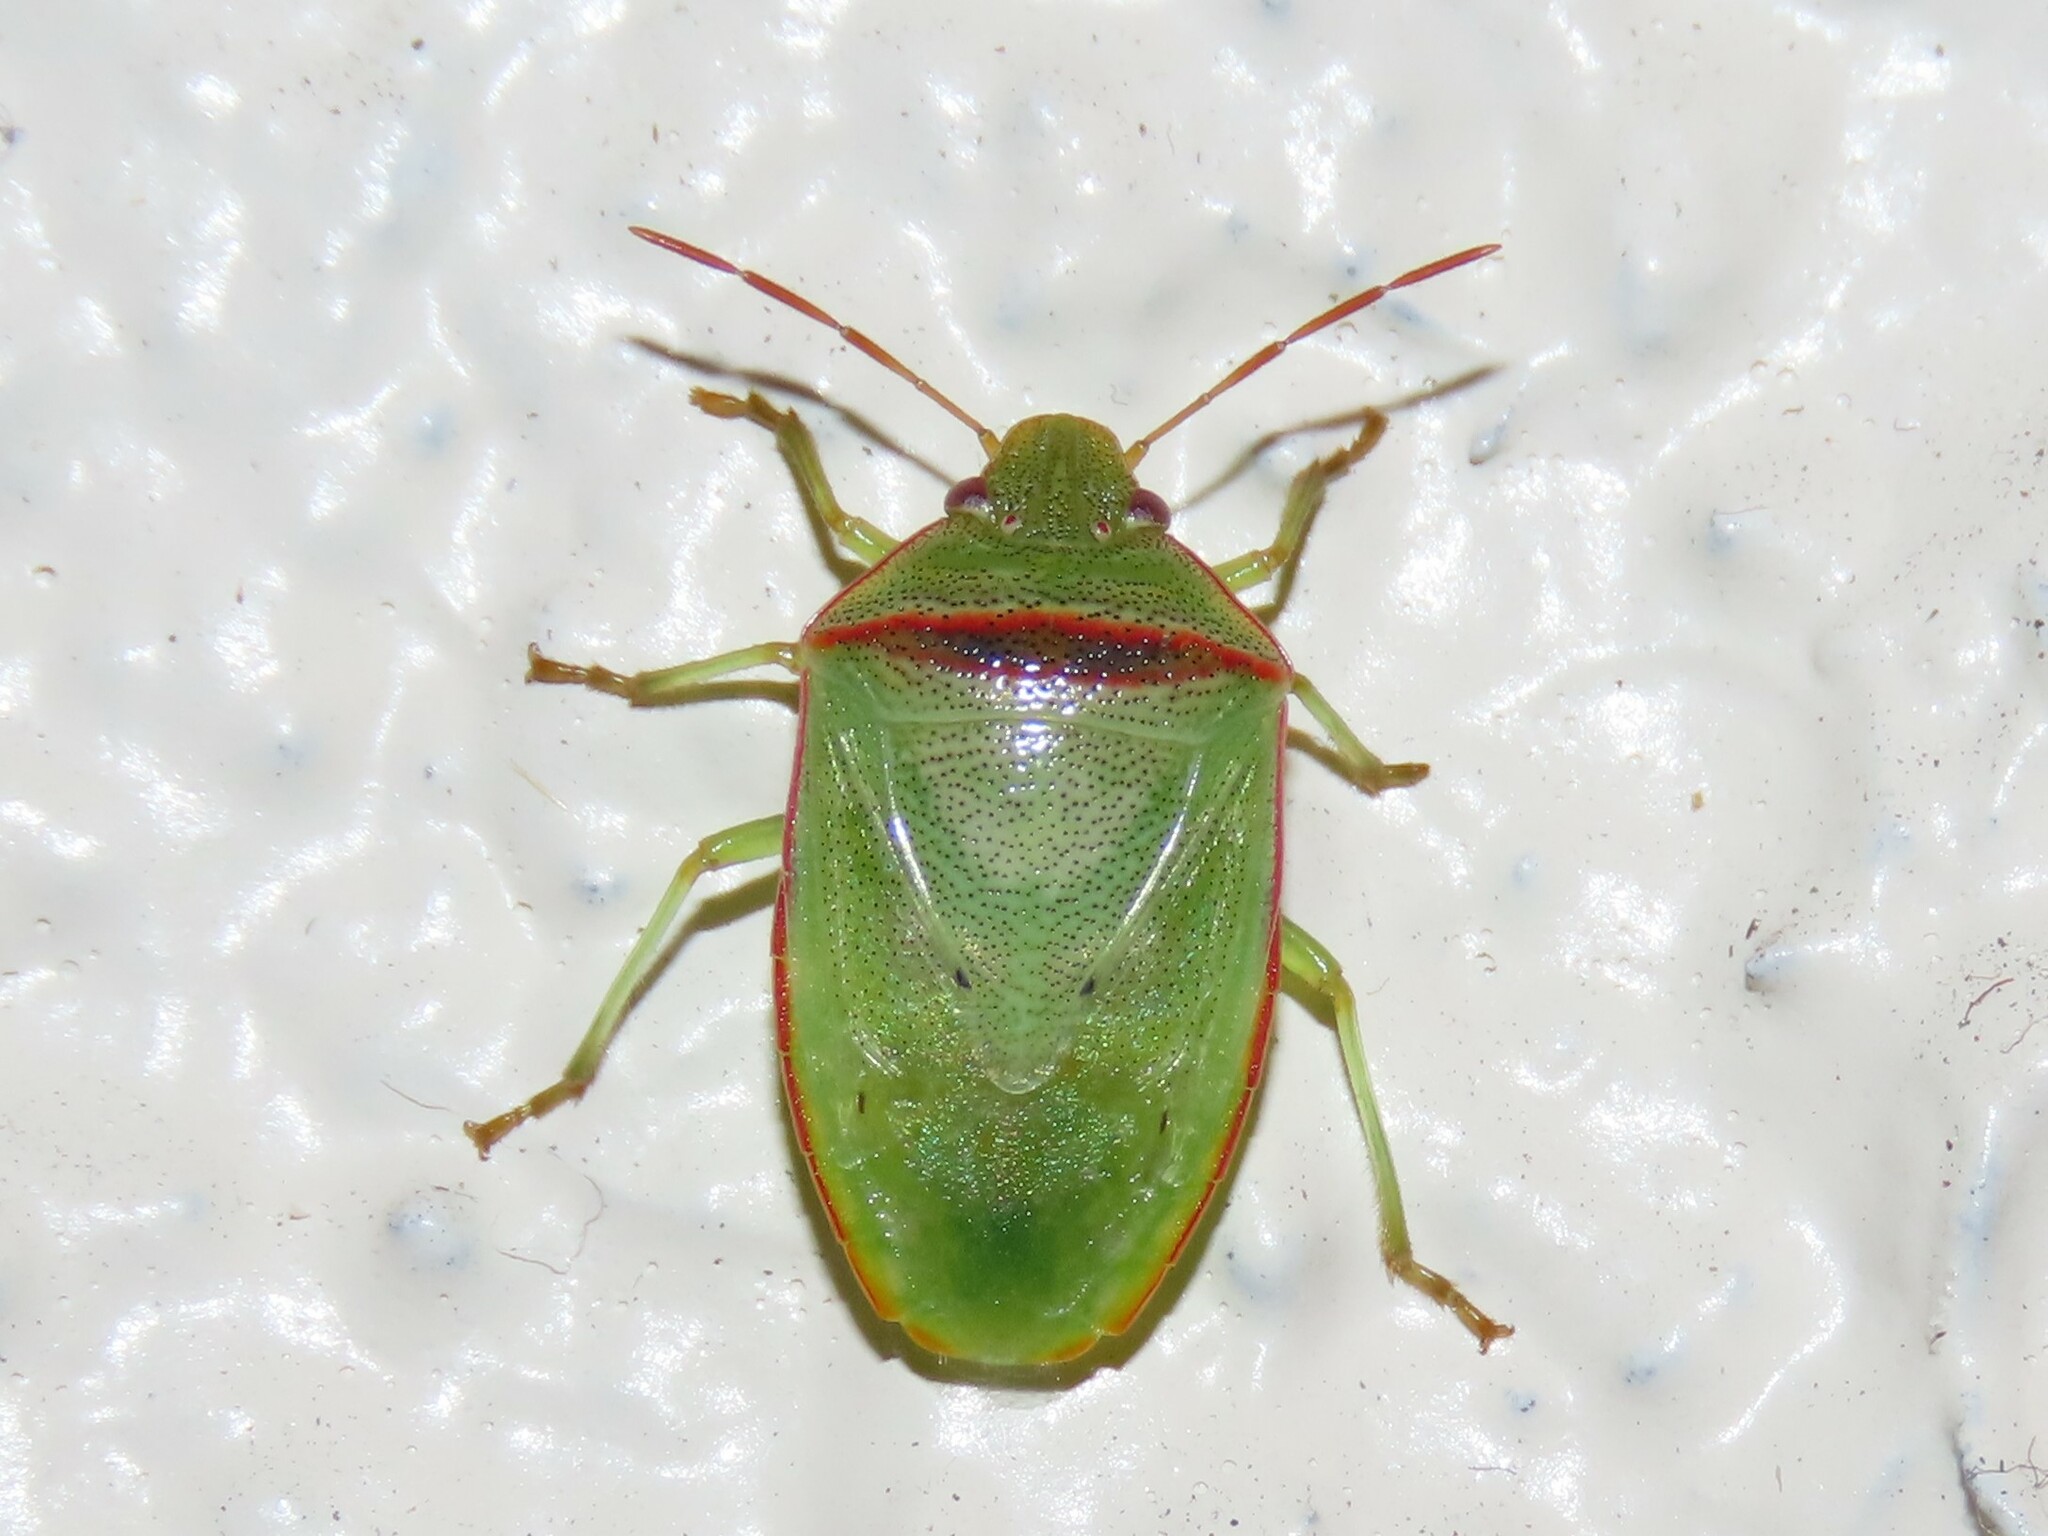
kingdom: Animalia
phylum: Arthropoda
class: Insecta
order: Hemiptera
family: Pentatomidae
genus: Piezodorus
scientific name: Piezodorus guildinii
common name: Redbanded stink bug
